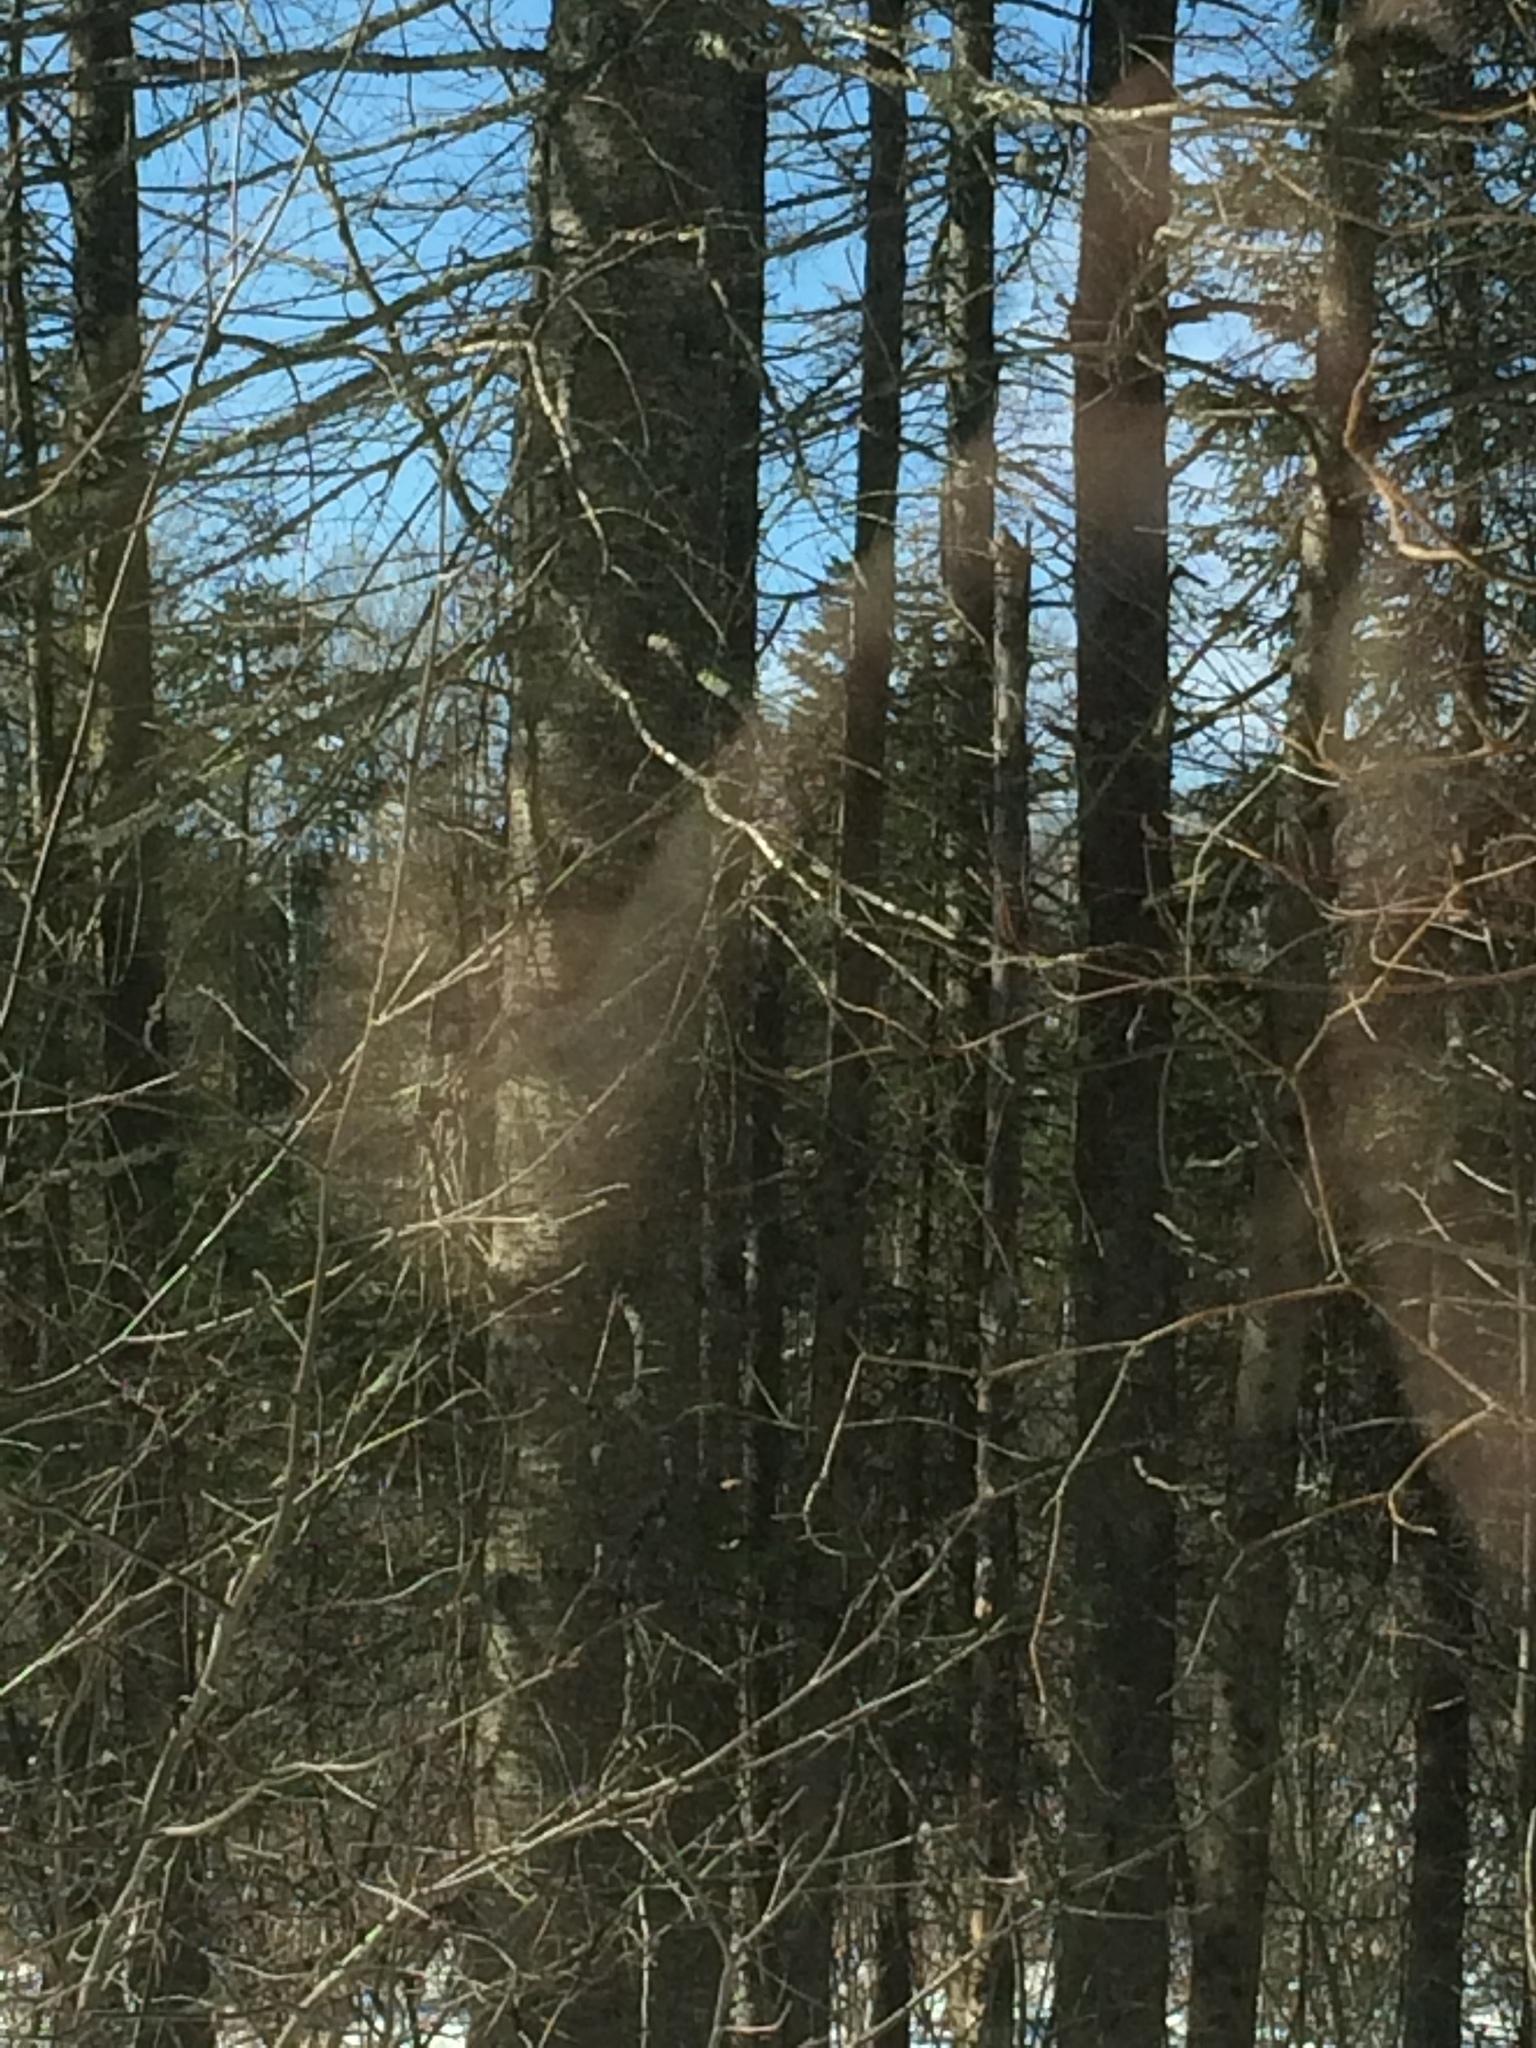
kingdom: Plantae
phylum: Tracheophyta
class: Pinopsida
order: Pinales
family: Pinaceae
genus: Abies
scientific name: Abies balsamea
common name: Balsam fir
